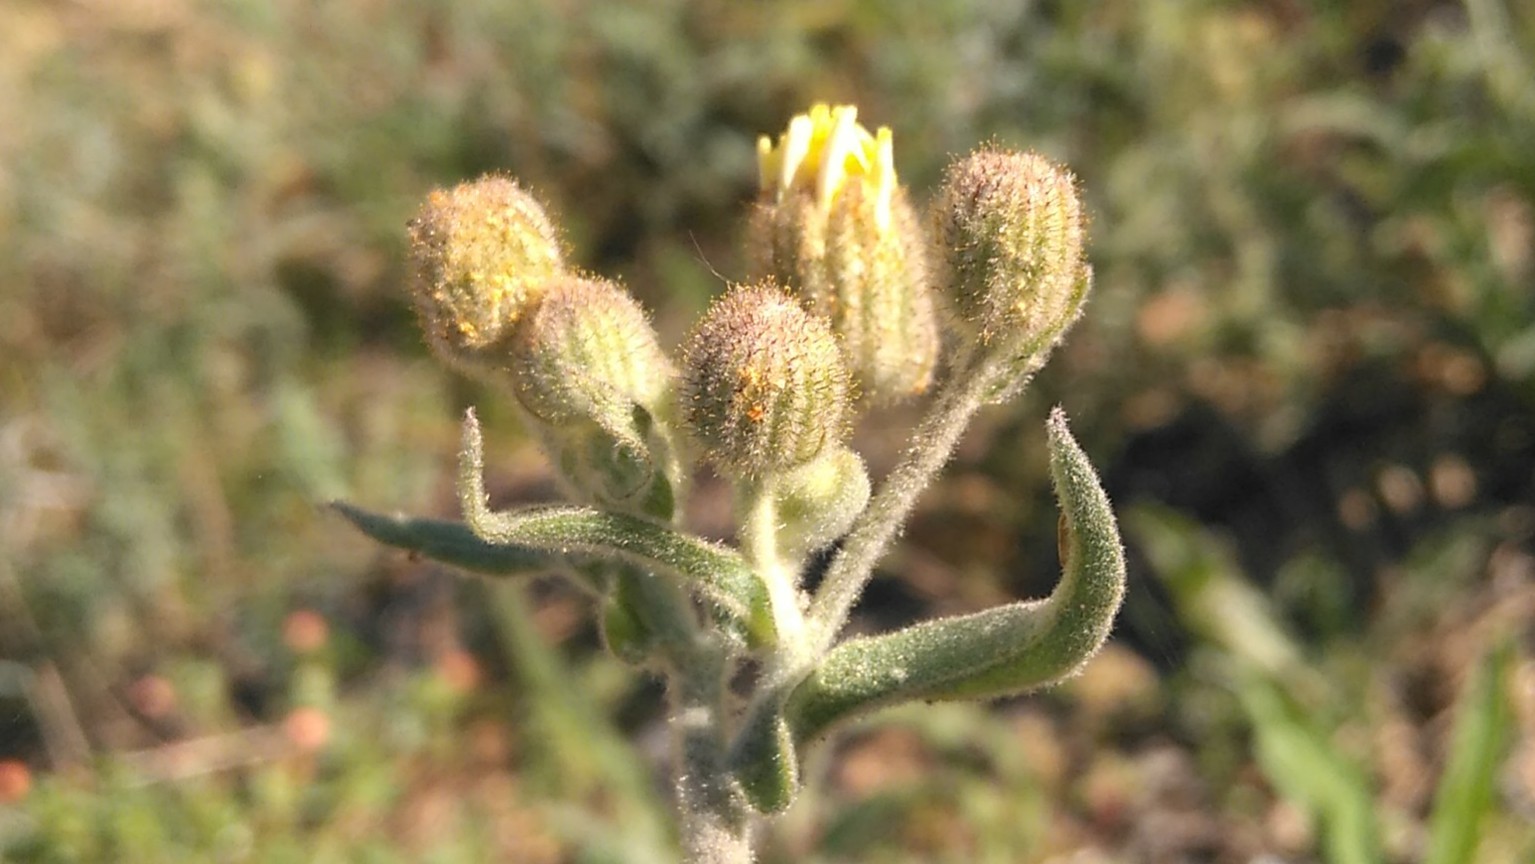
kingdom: Plantae
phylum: Tracheophyta
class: Magnoliopsida
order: Asterales
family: Asteraceae
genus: Andryala
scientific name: Andryala integrifolia
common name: Common andryala
